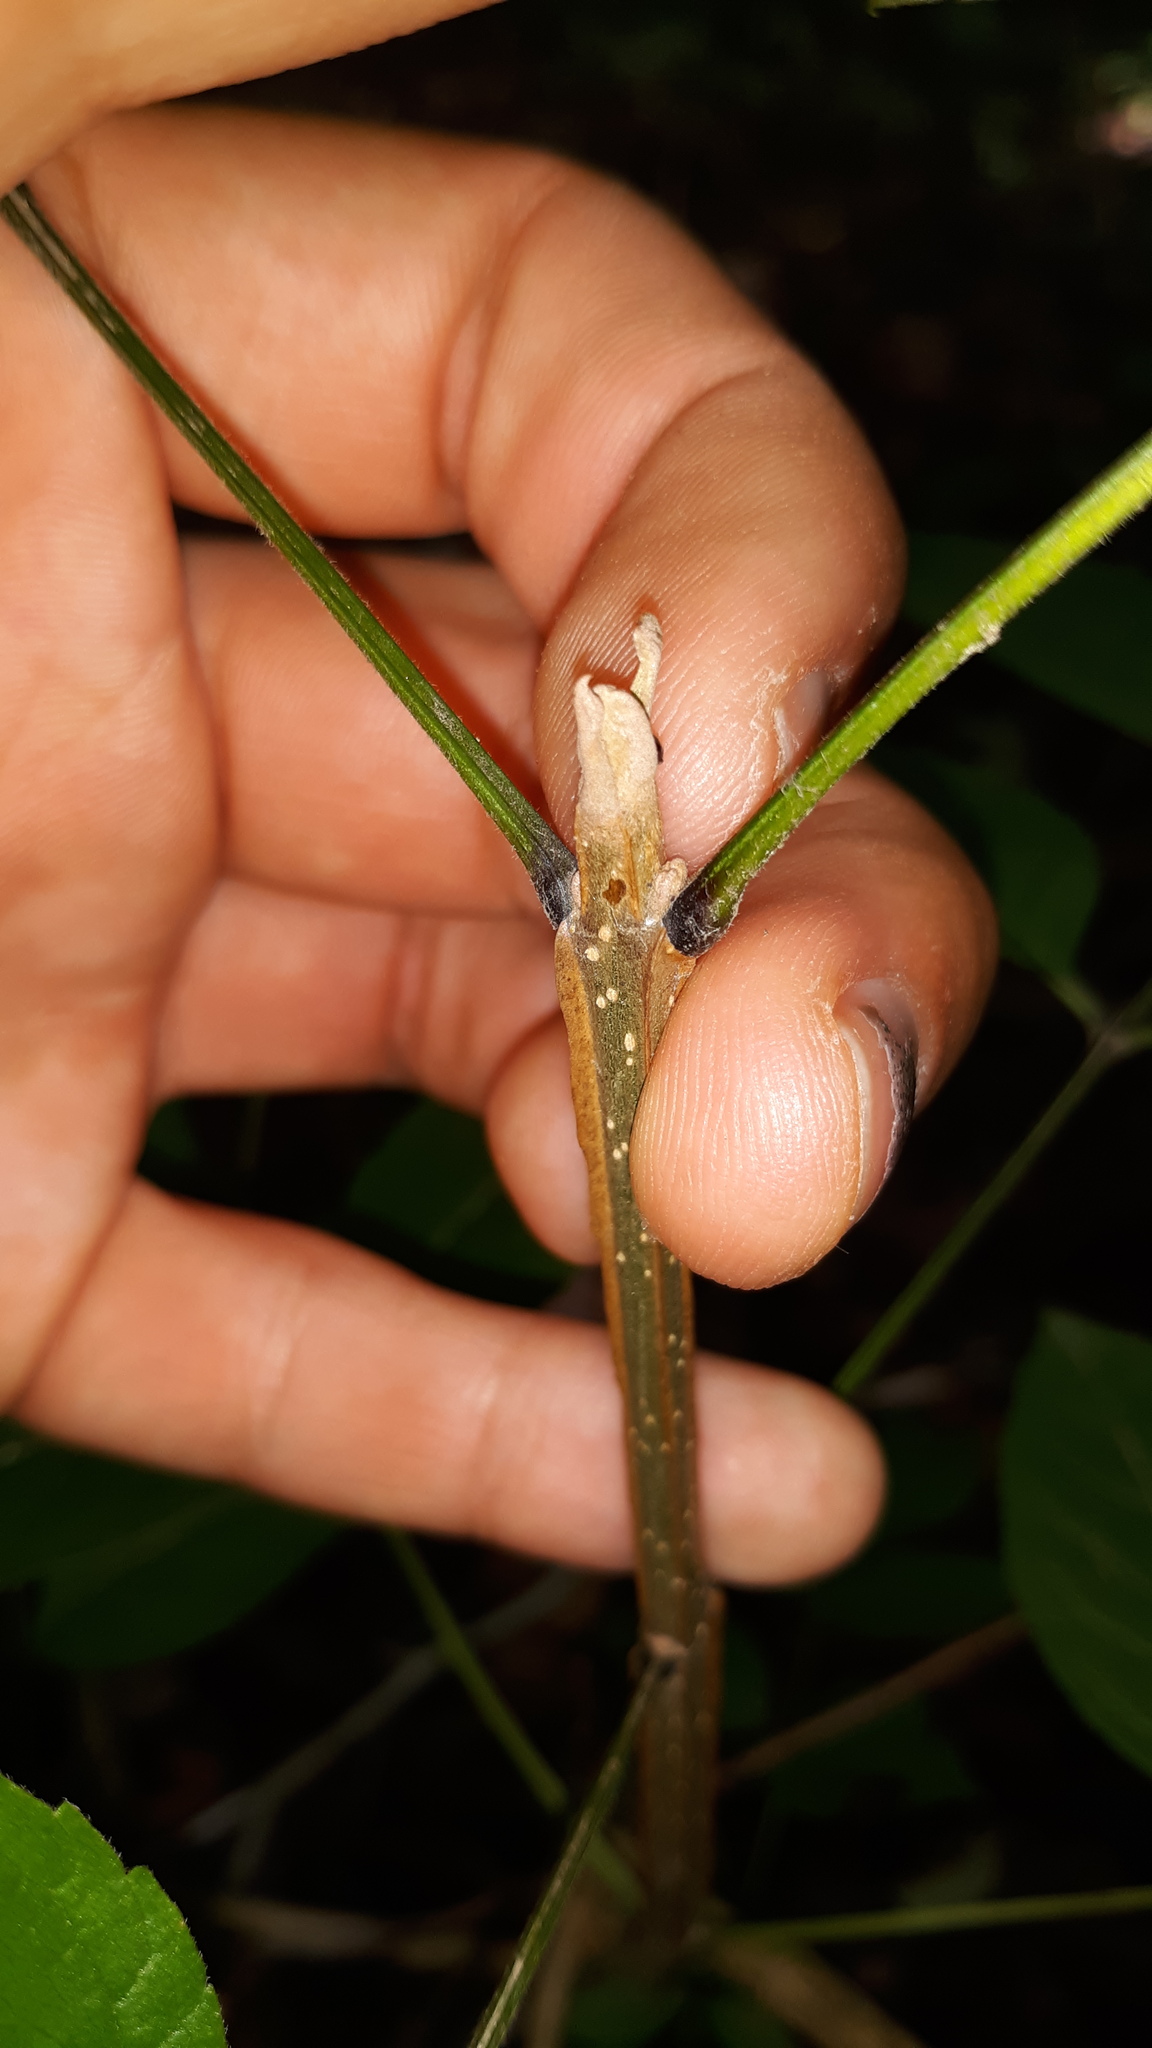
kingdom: Plantae
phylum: Tracheophyta
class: Magnoliopsida
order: Lamiales
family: Oleaceae
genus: Fraxinus
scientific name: Fraxinus quadrangulata
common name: Blue ash
